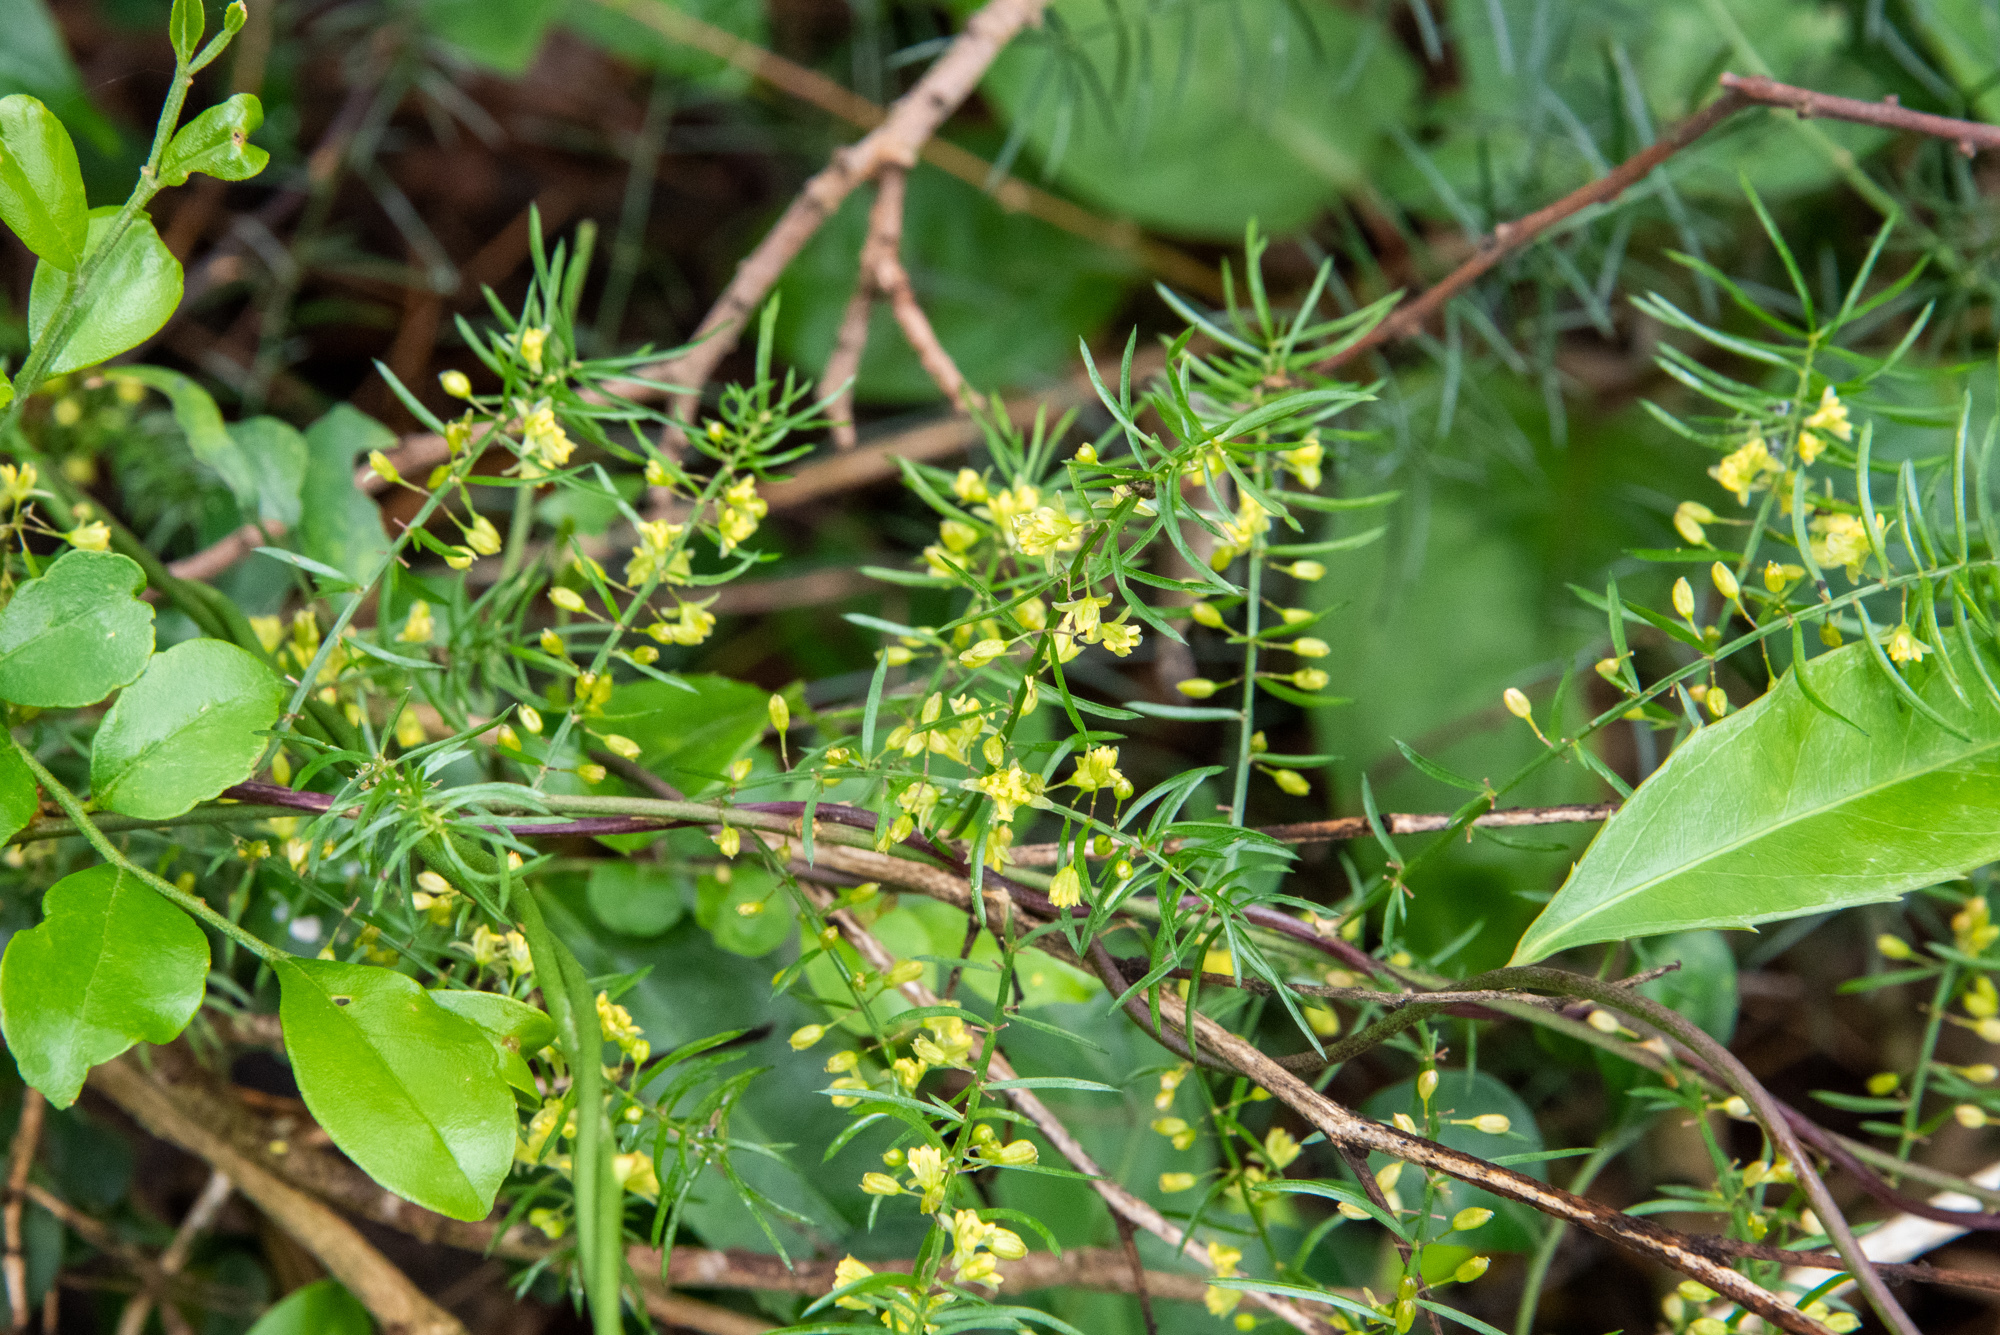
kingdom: Plantae
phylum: Tracheophyta
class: Liliopsida
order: Asparagales
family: Asparagaceae
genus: Asparagus
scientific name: Asparagus cochinchinensis
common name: Chinese asparagus
